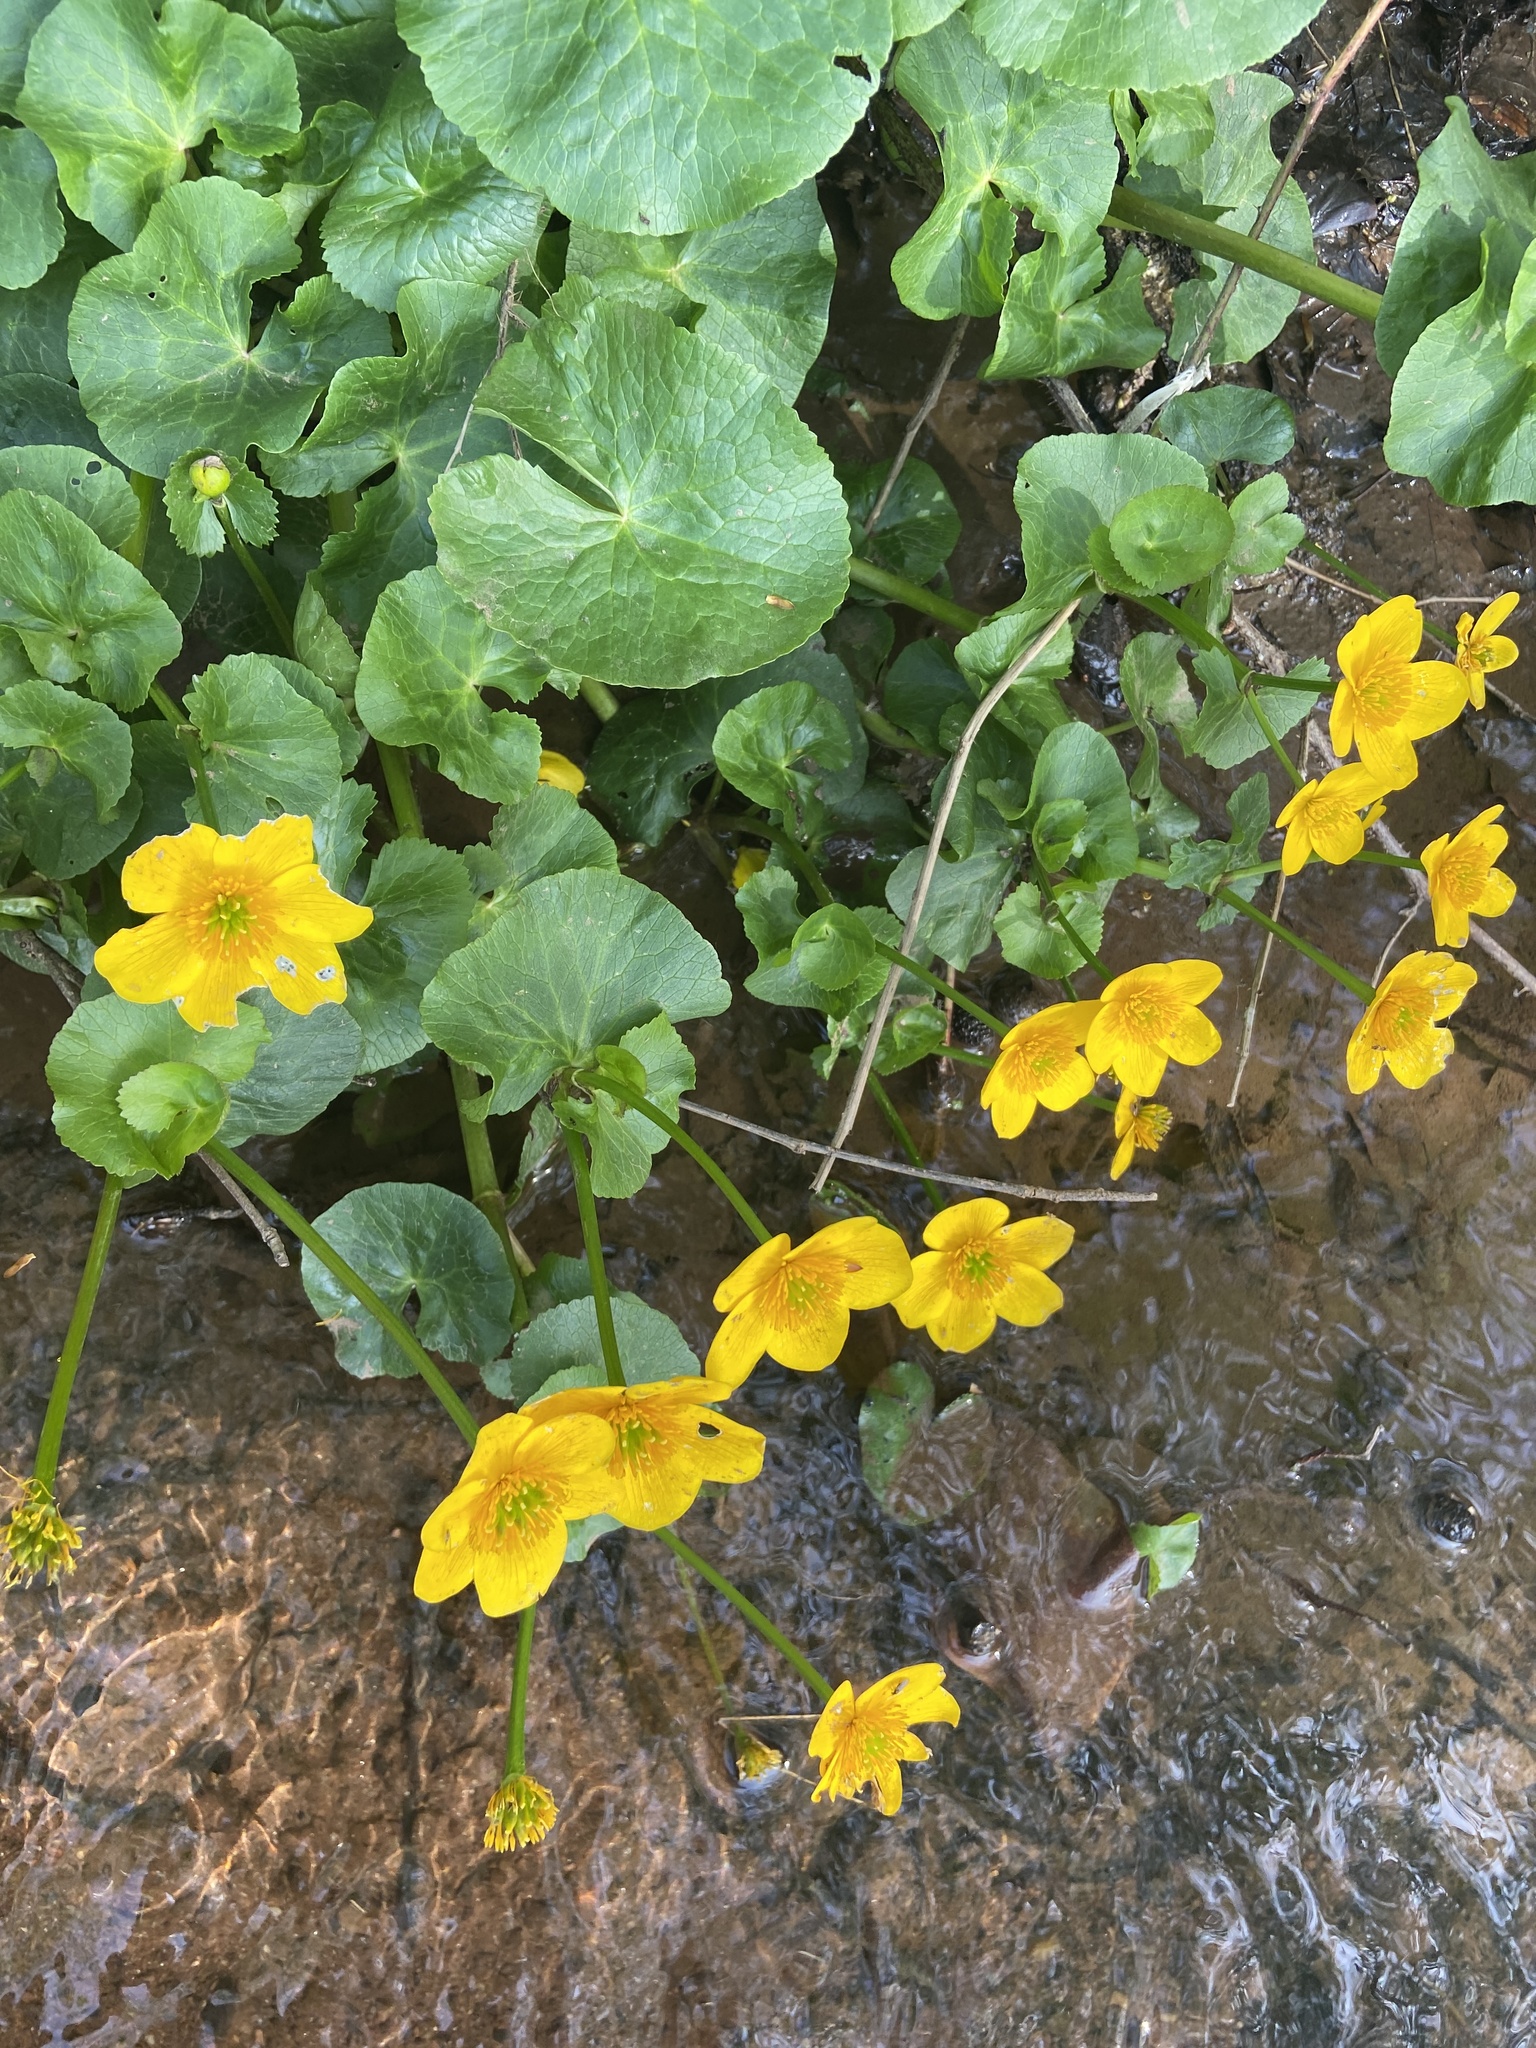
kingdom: Plantae
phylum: Tracheophyta
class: Magnoliopsida
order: Ranunculales
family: Ranunculaceae
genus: Caltha
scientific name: Caltha palustris
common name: Marsh marigold
